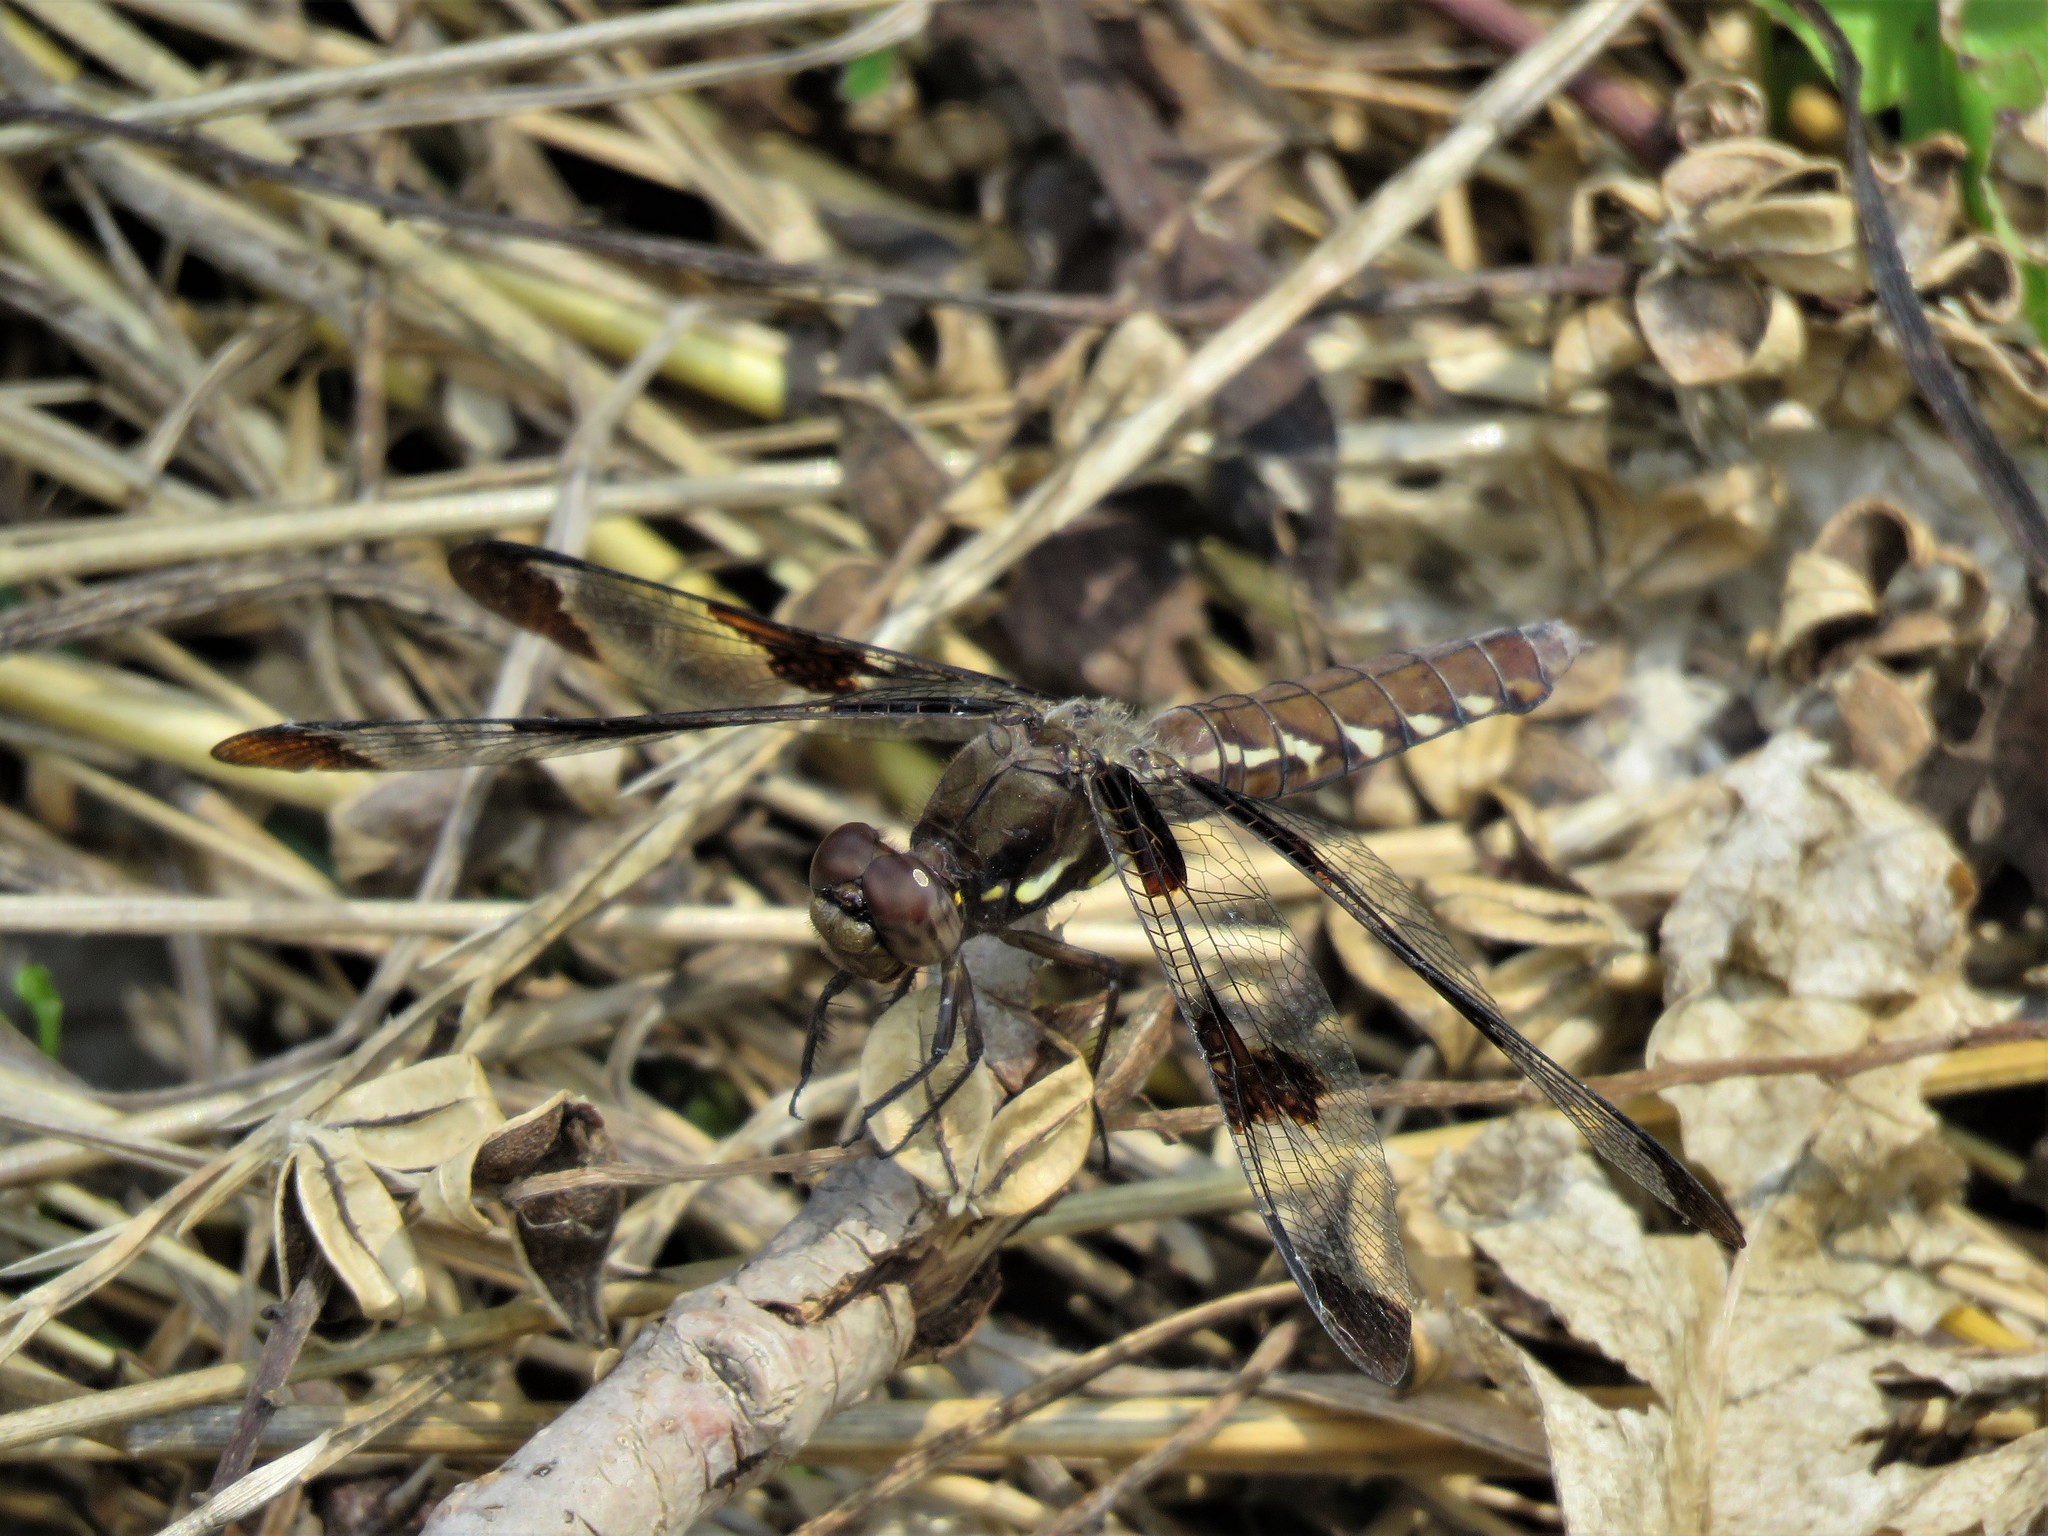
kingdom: Animalia
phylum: Arthropoda
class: Insecta
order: Odonata
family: Libellulidae
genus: Plathemis
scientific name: Plathemis lydia
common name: Common whitetail
